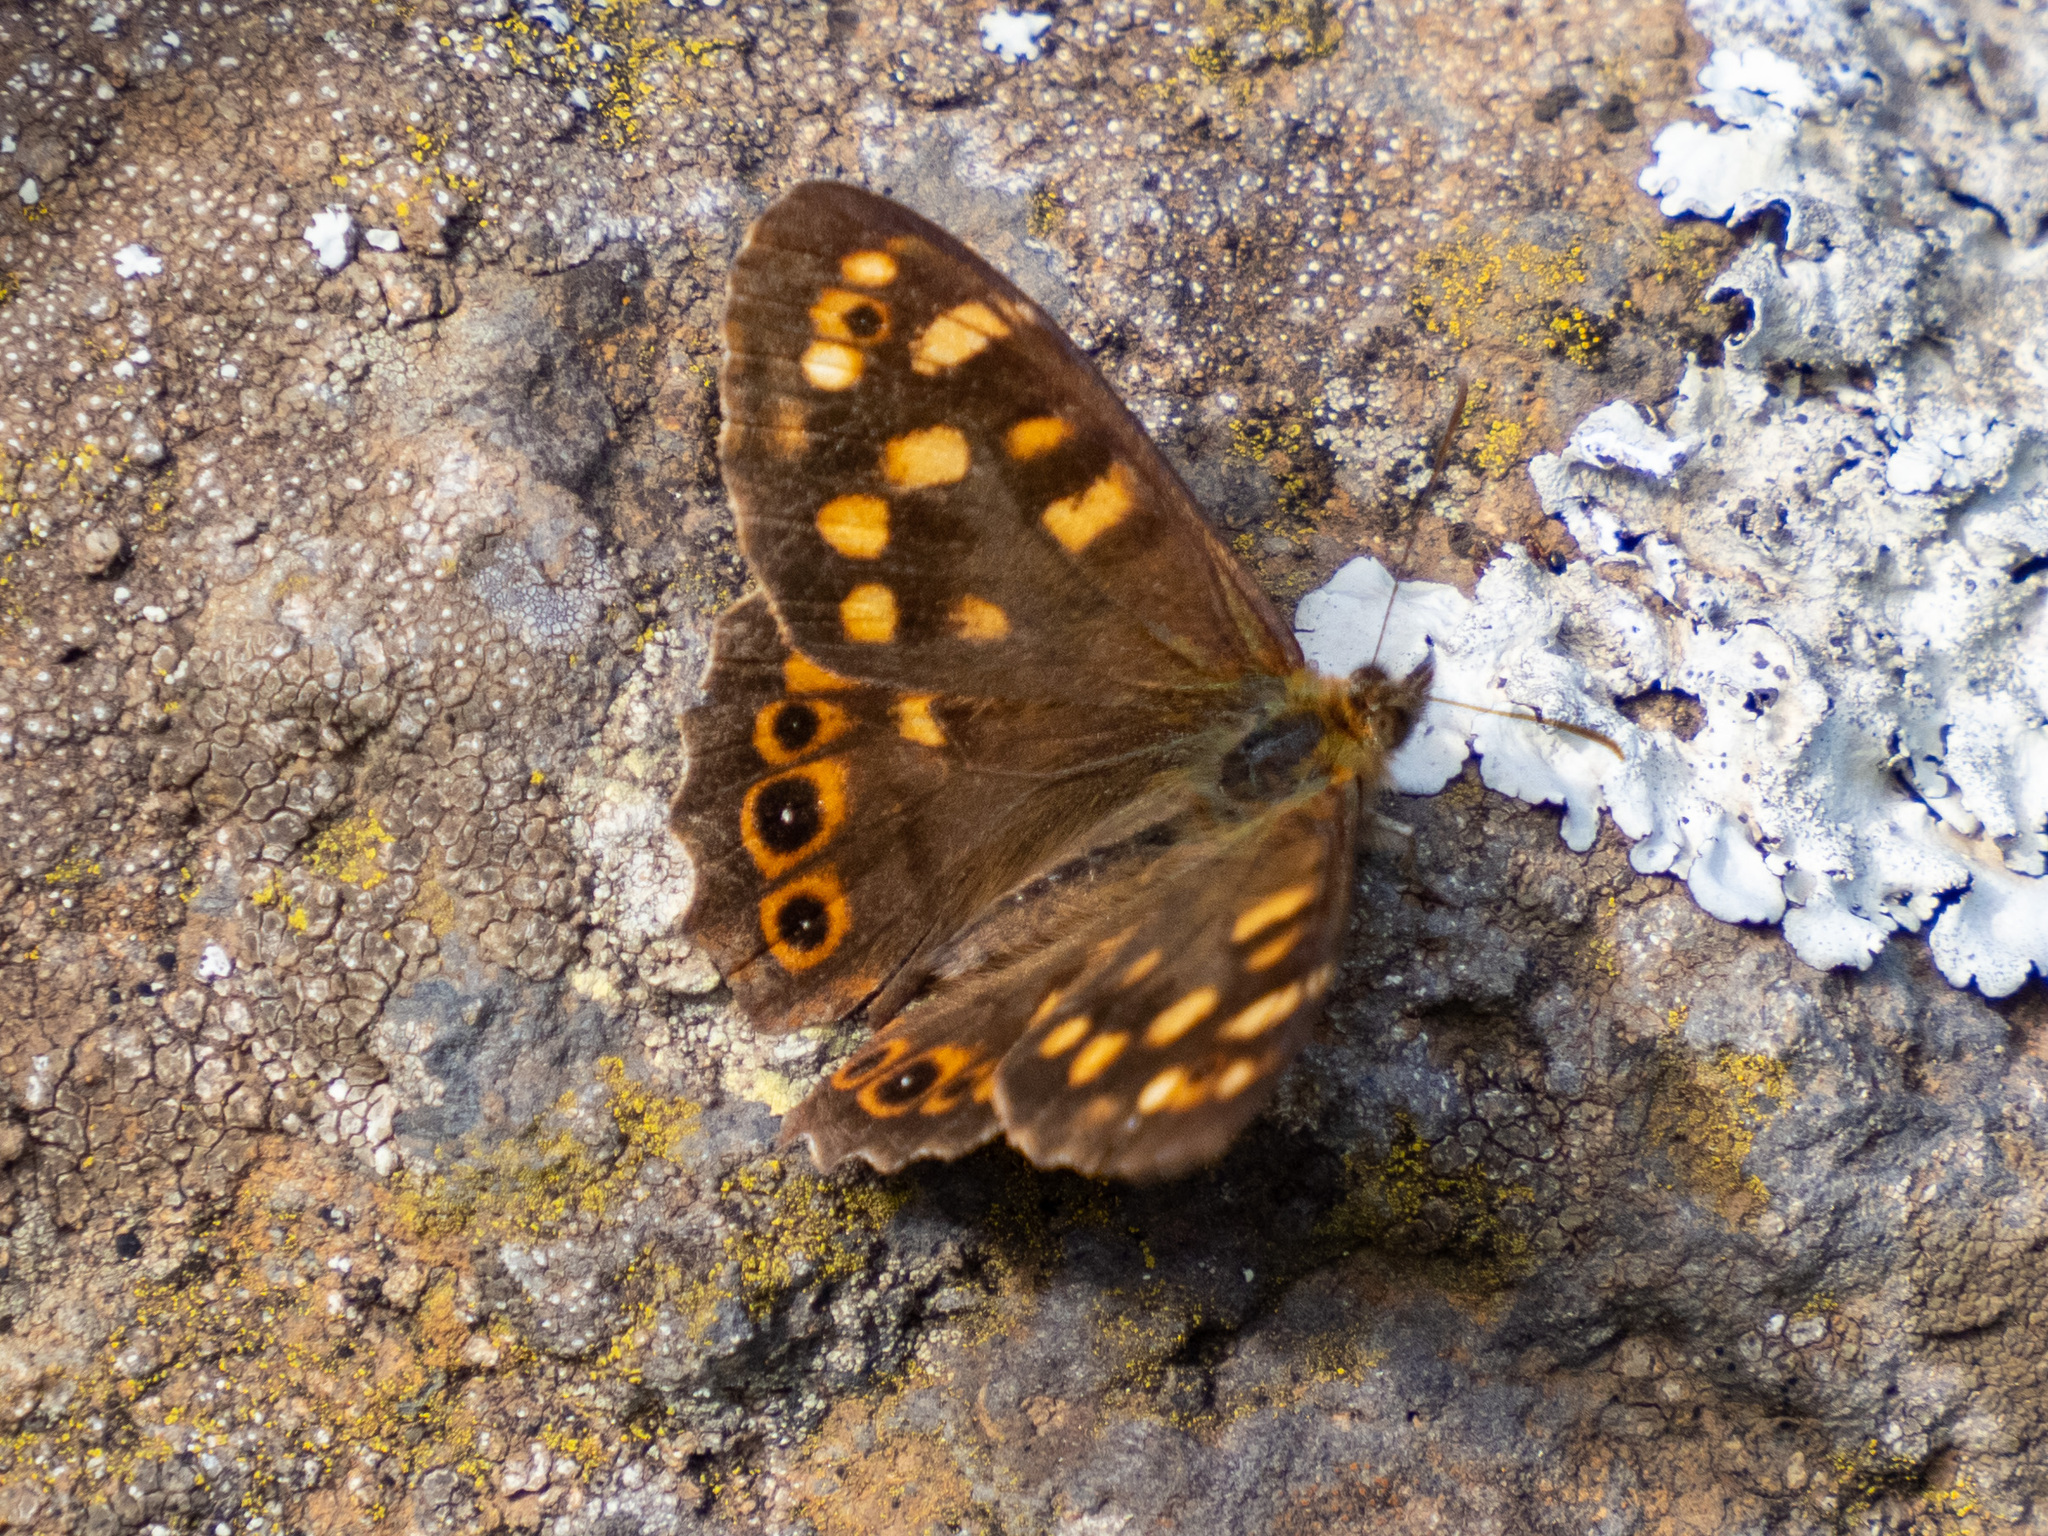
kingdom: Animalia
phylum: Arthropoda
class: Insecta
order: Lepidoptera
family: Nymphalidae
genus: Pararge
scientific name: Pararge aegeria
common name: Speckled wood
